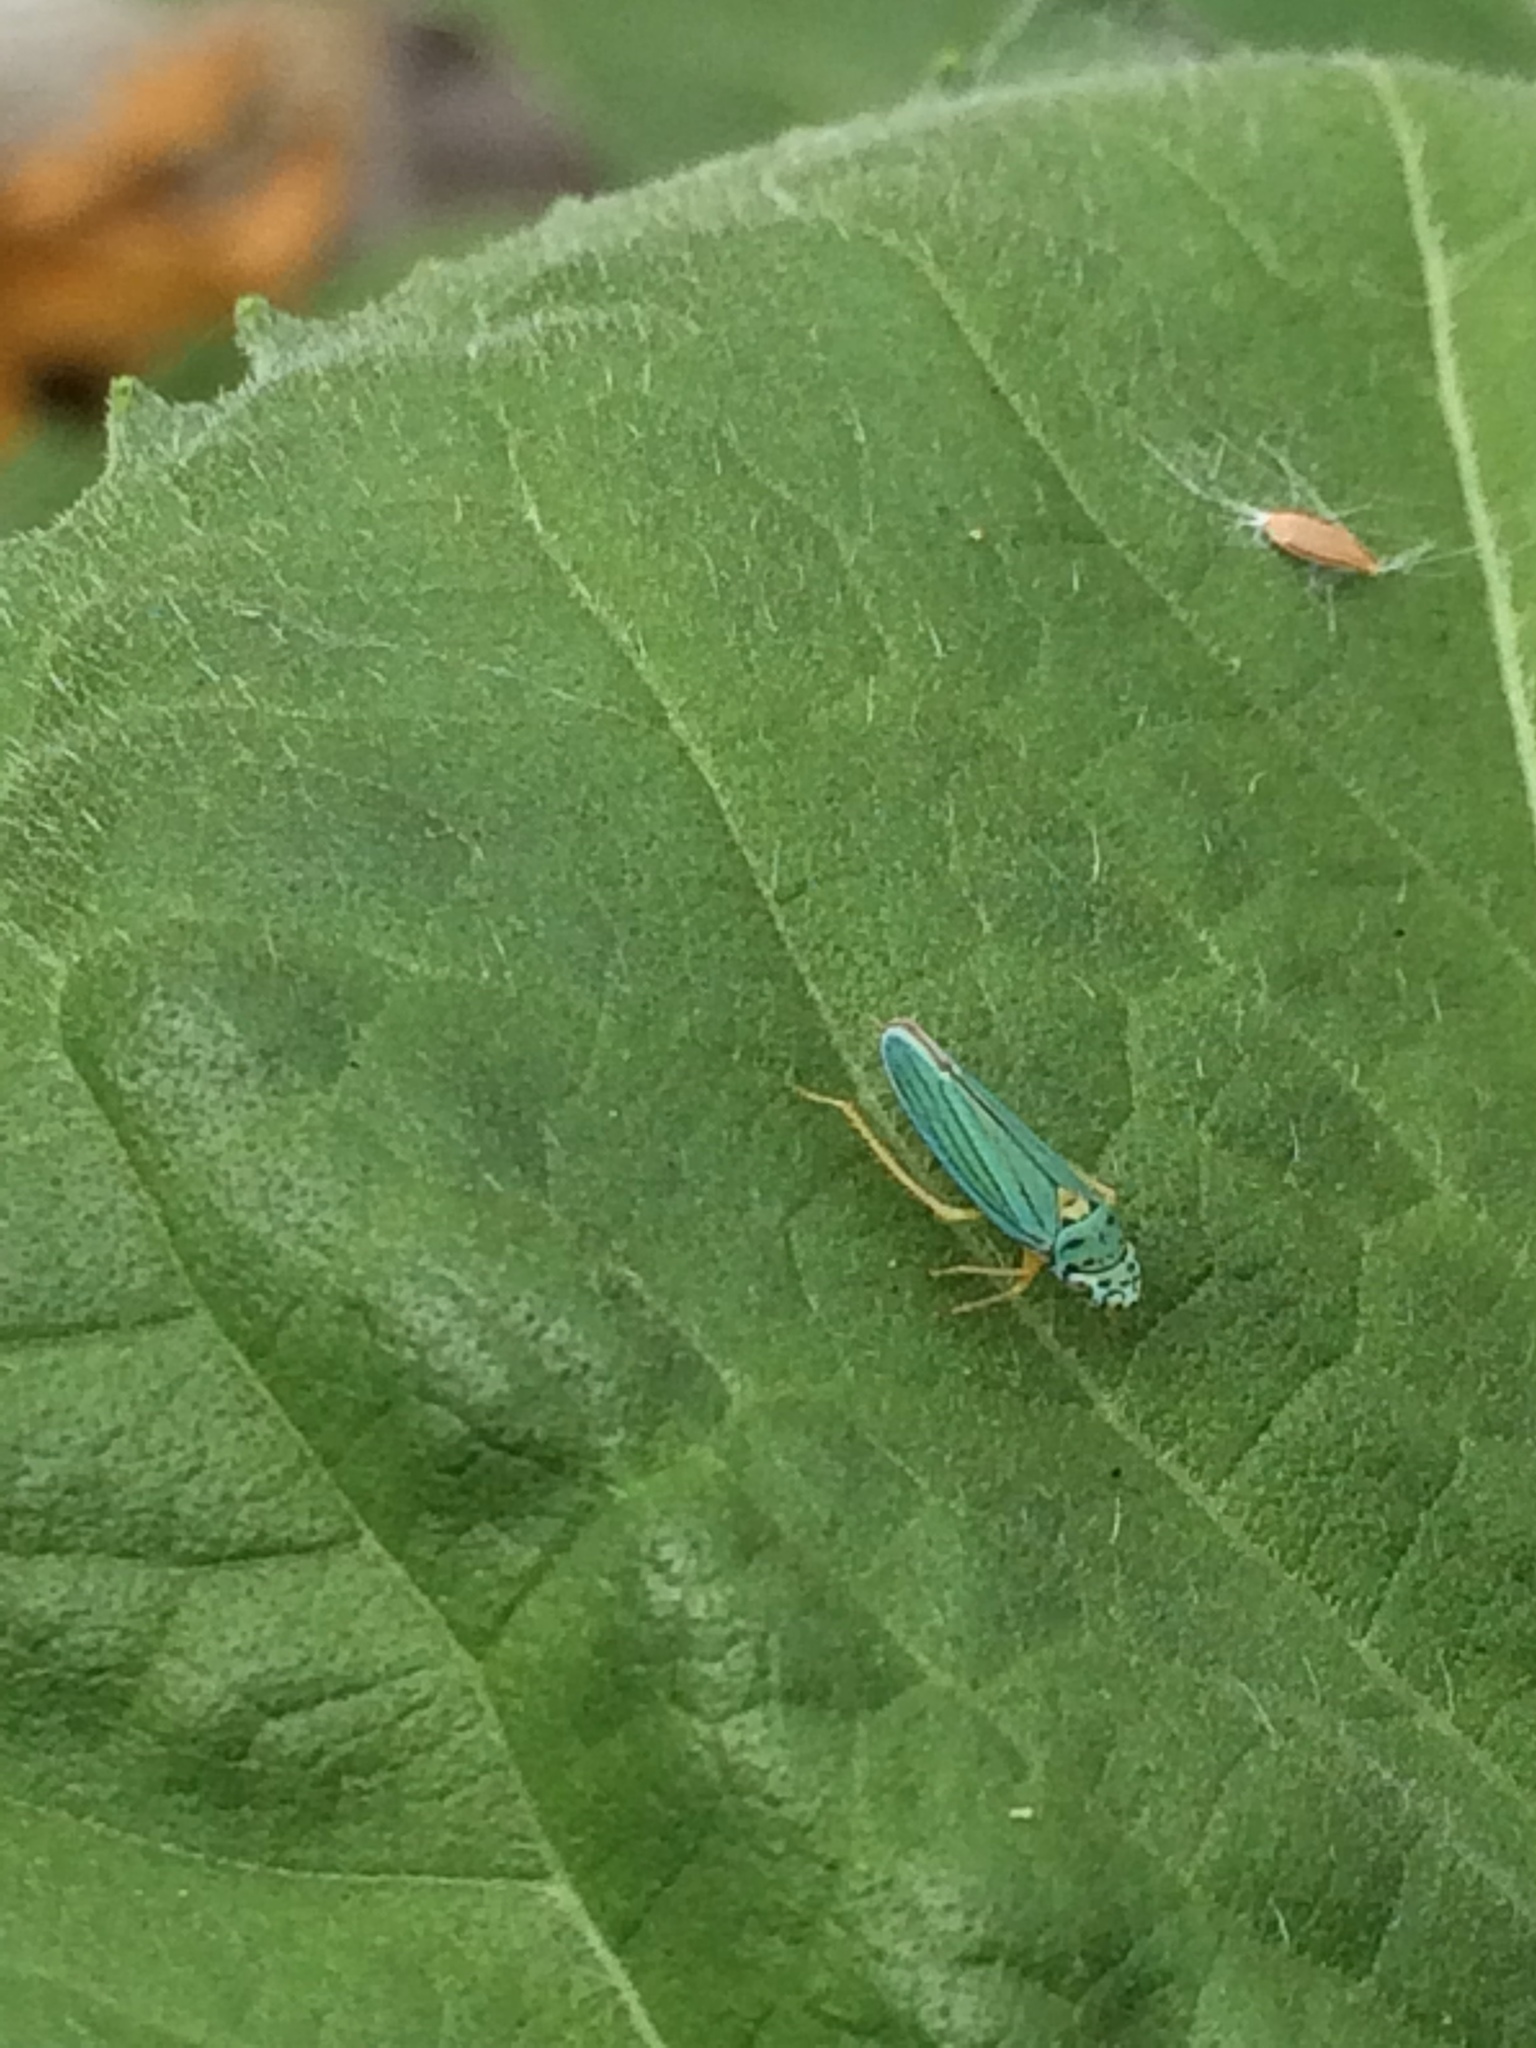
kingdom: Animalia
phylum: Arthropoda
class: Insecta
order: Hemiptera
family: Cicadellidae
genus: Graphocephala
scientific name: Graphocephala atropunctata
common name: Blue-green sharpshooter
